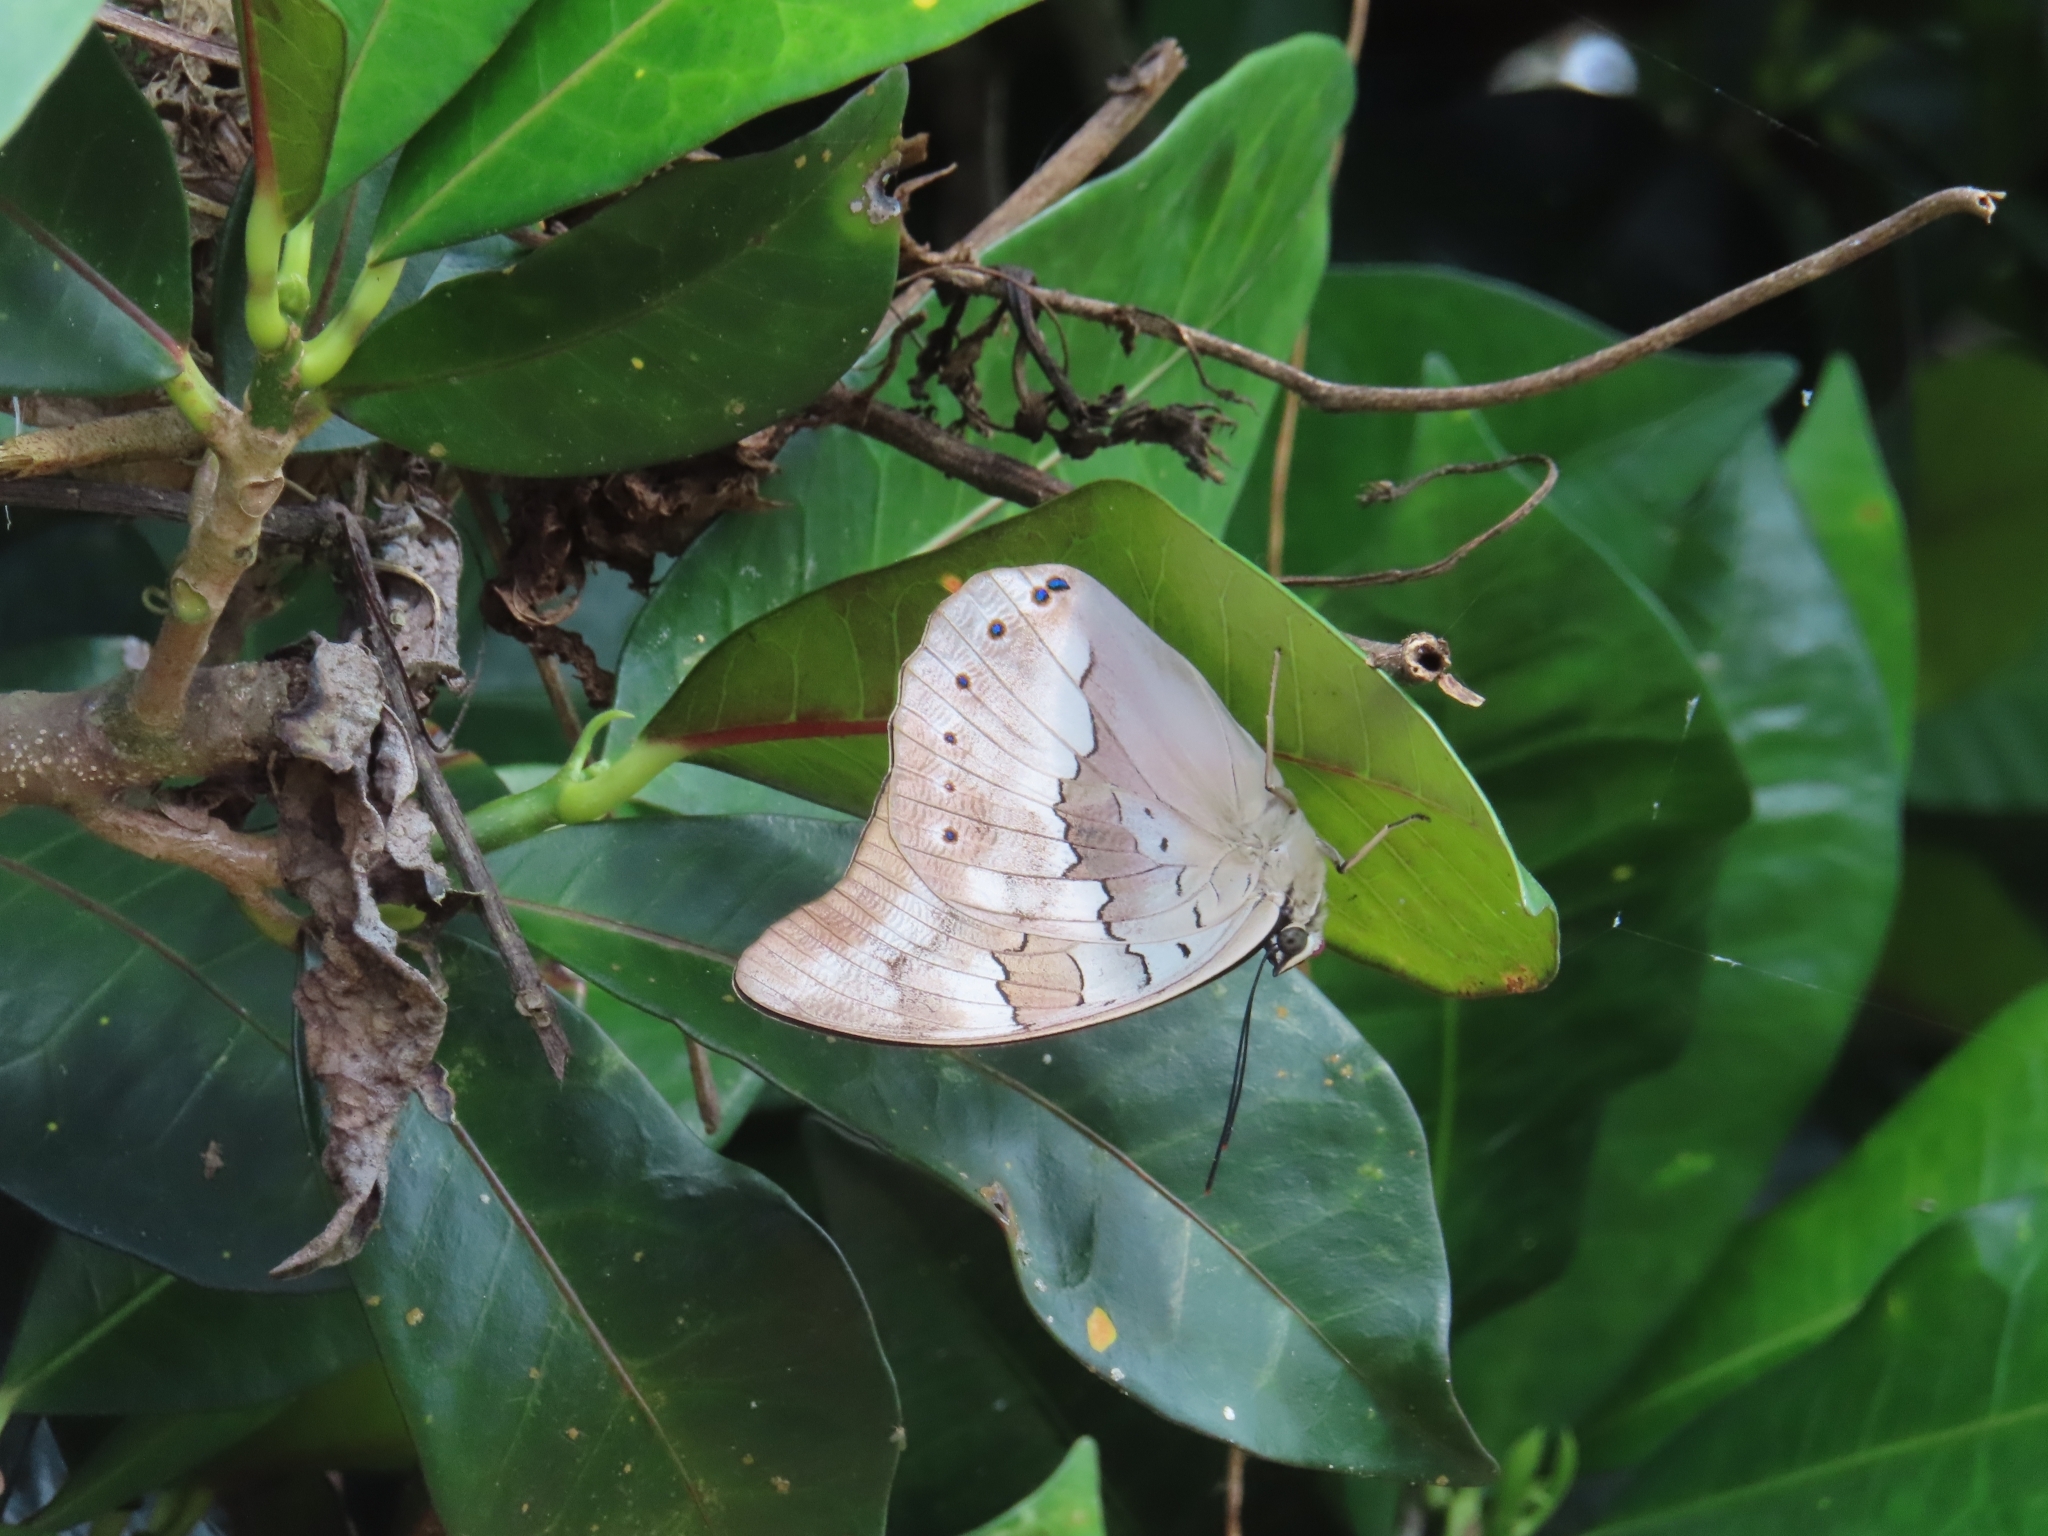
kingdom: Animalia
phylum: Arthropoda
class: Insecta
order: Lepidoptera
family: Nymphalidae
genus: Prepona
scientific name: Prepona demophoon
